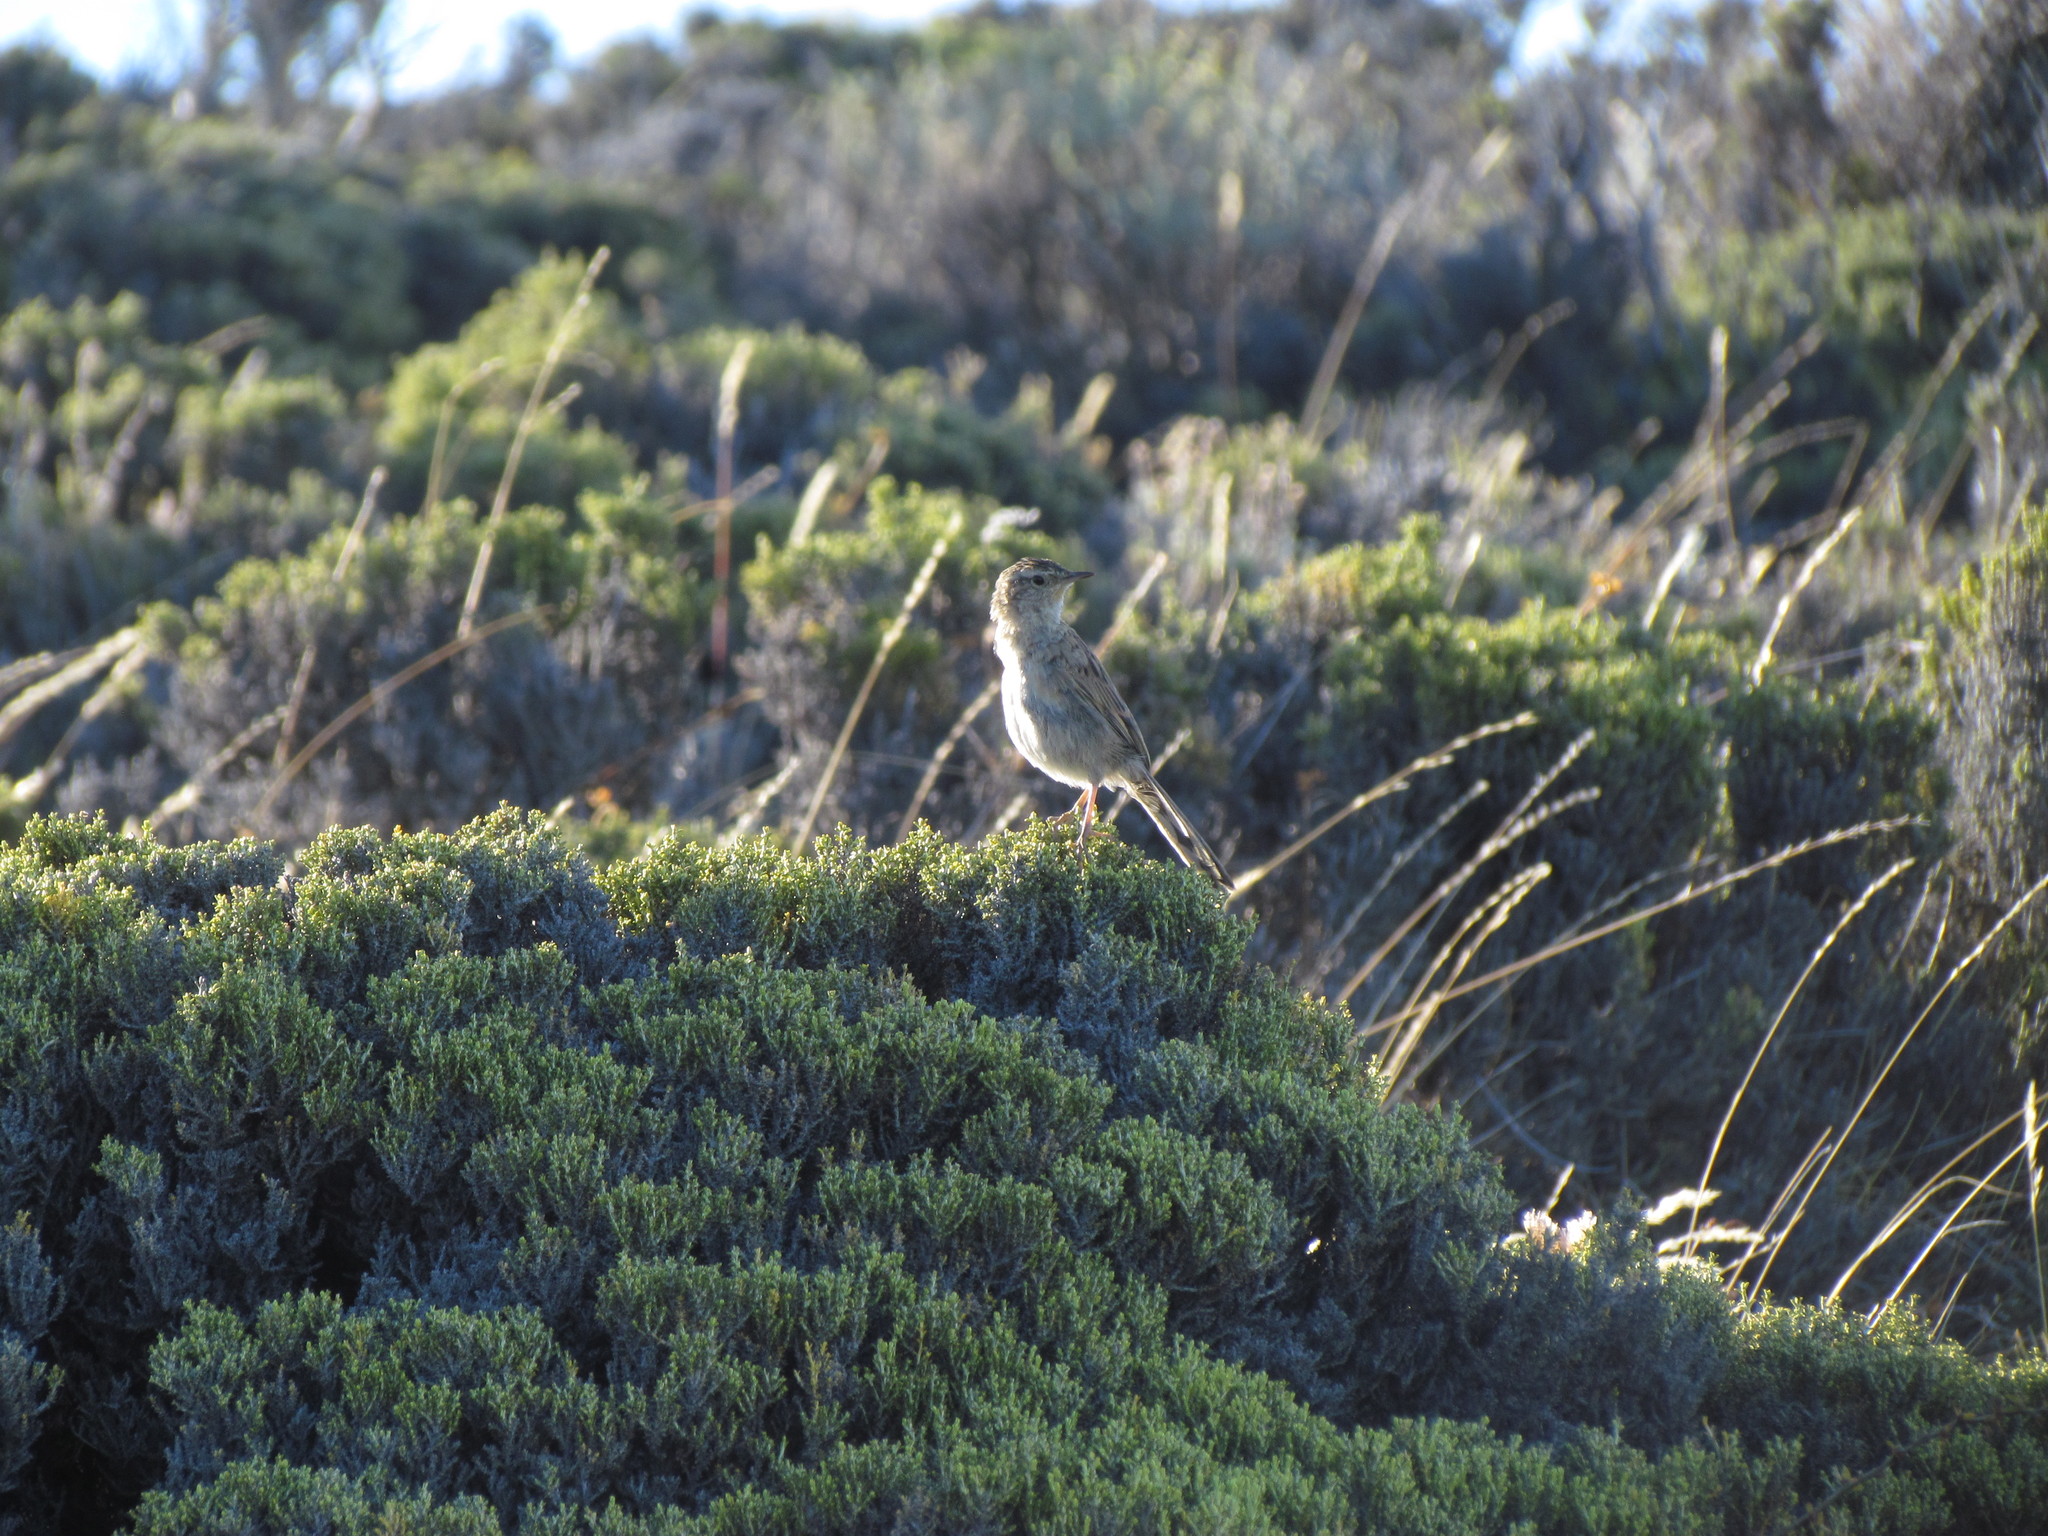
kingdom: Animalia
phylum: Chordata
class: Aves
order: Passeriformes
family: Furnariidae
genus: Asthenes
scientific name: Asthenes anthoides
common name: Austral canastero
